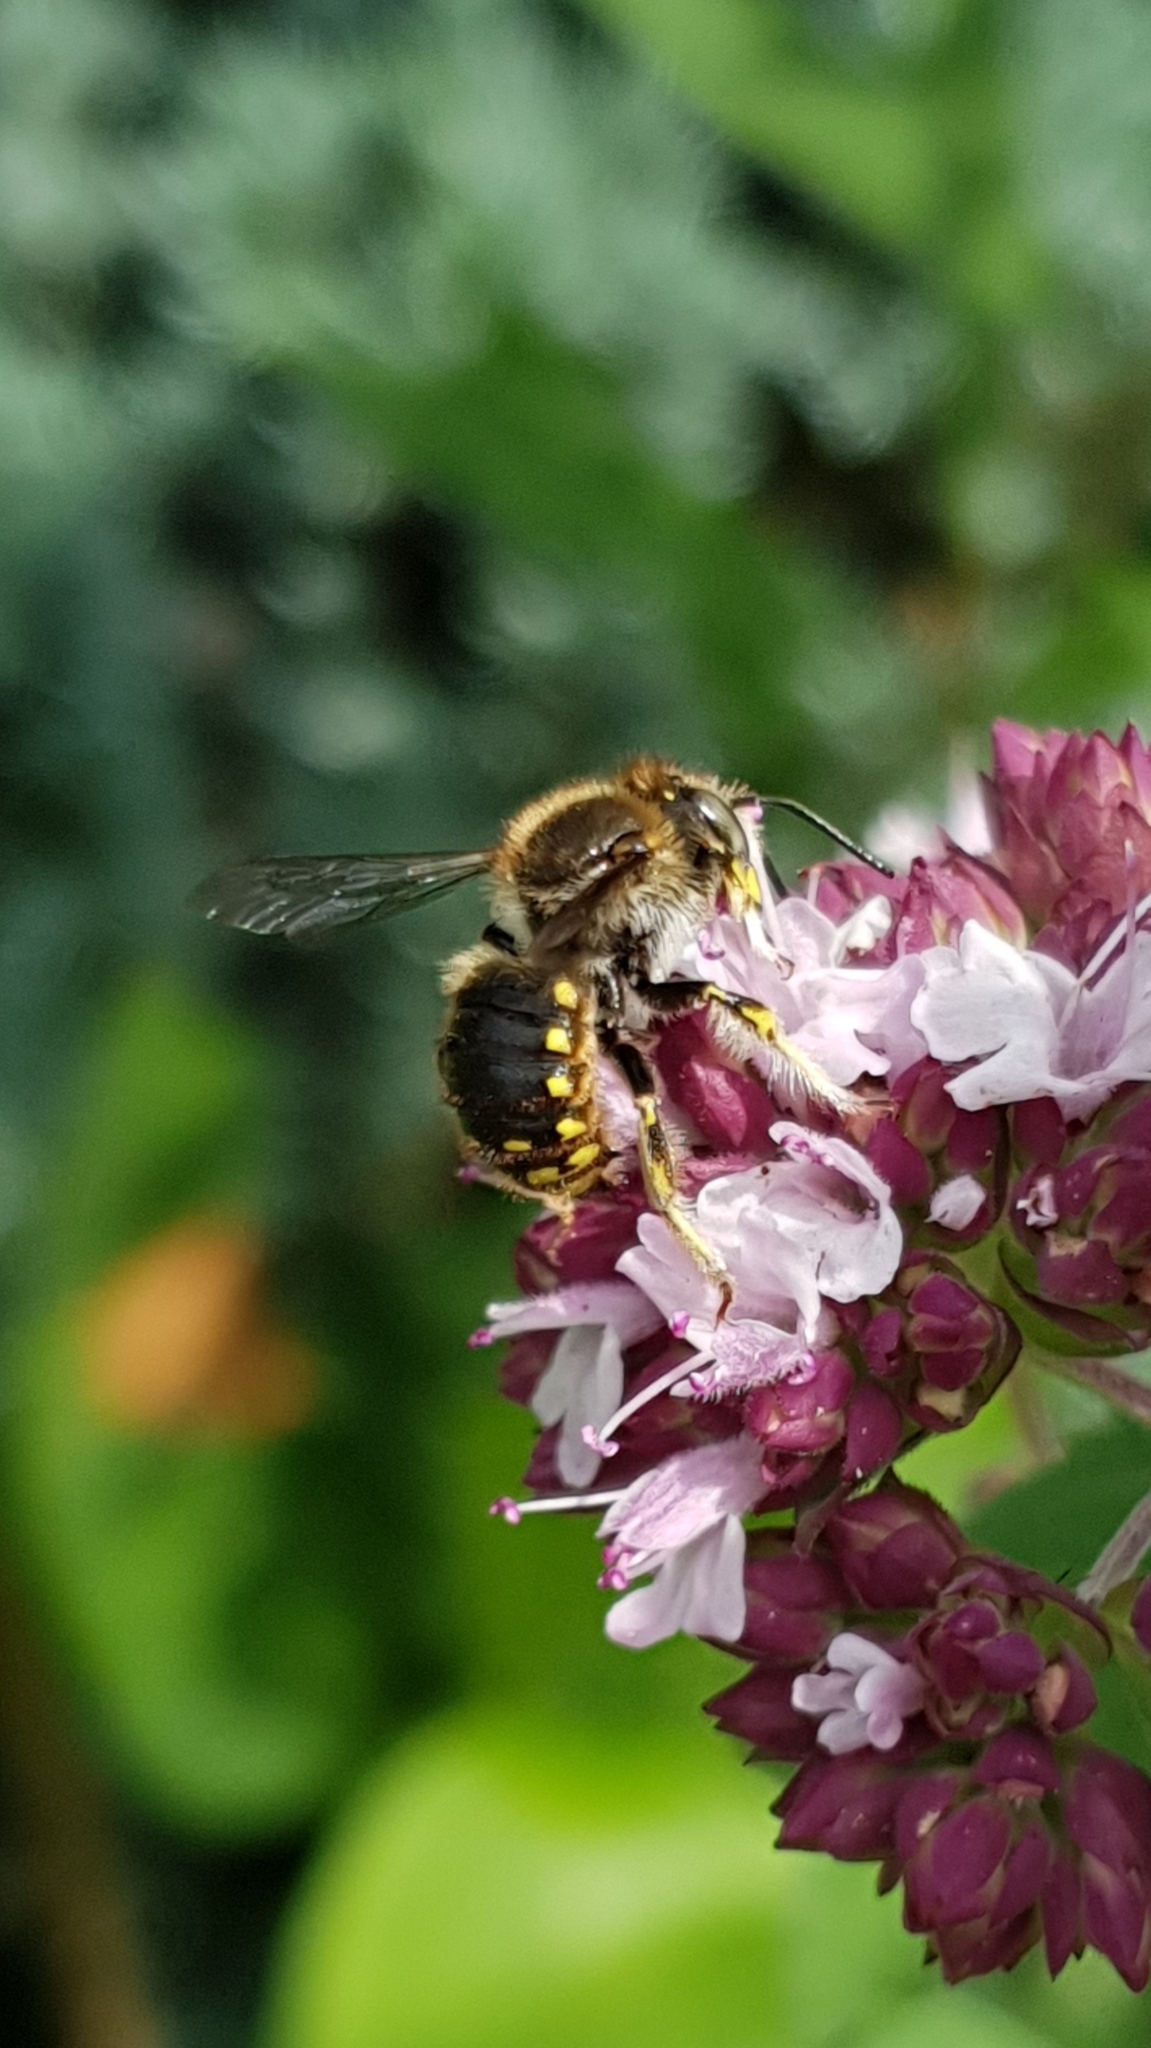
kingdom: Animalia
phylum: Arthropoda
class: Insecta
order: Hymenoptera
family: Megachilidae
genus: Anthidium
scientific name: Anthidium manicatum
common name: Wool carder bee
